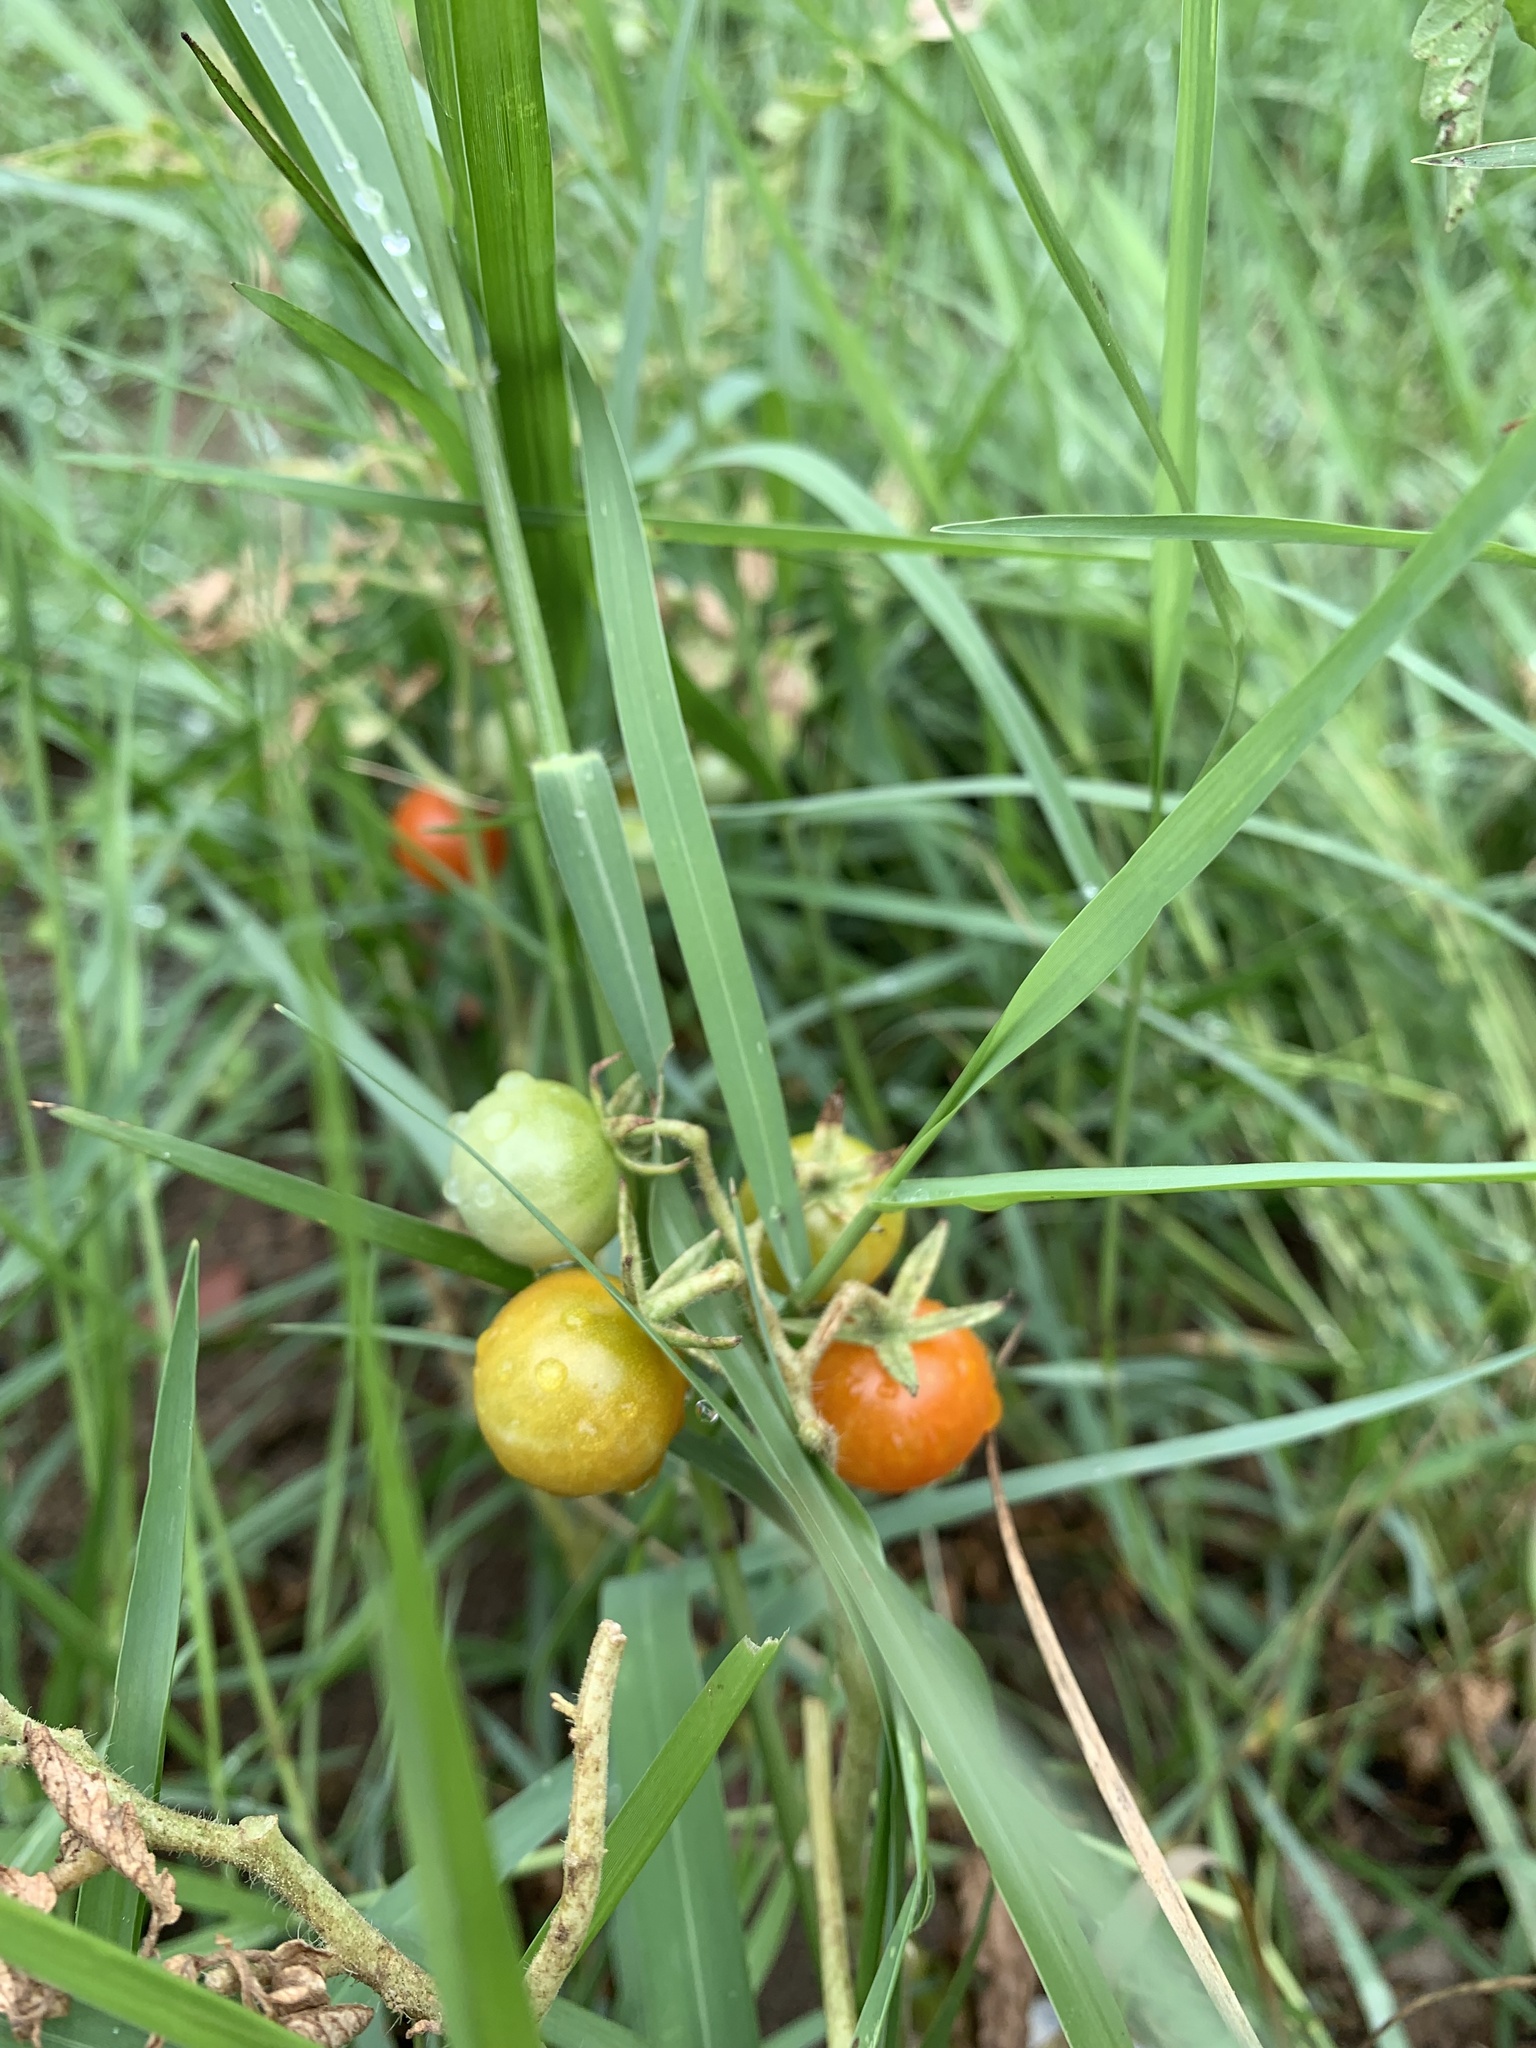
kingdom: Plantae
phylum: Tracheophyta
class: Magnoliopsida
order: Solanales
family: Solanaceae
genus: Solanum
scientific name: Solanum lycopersicum
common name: Garden tomato
